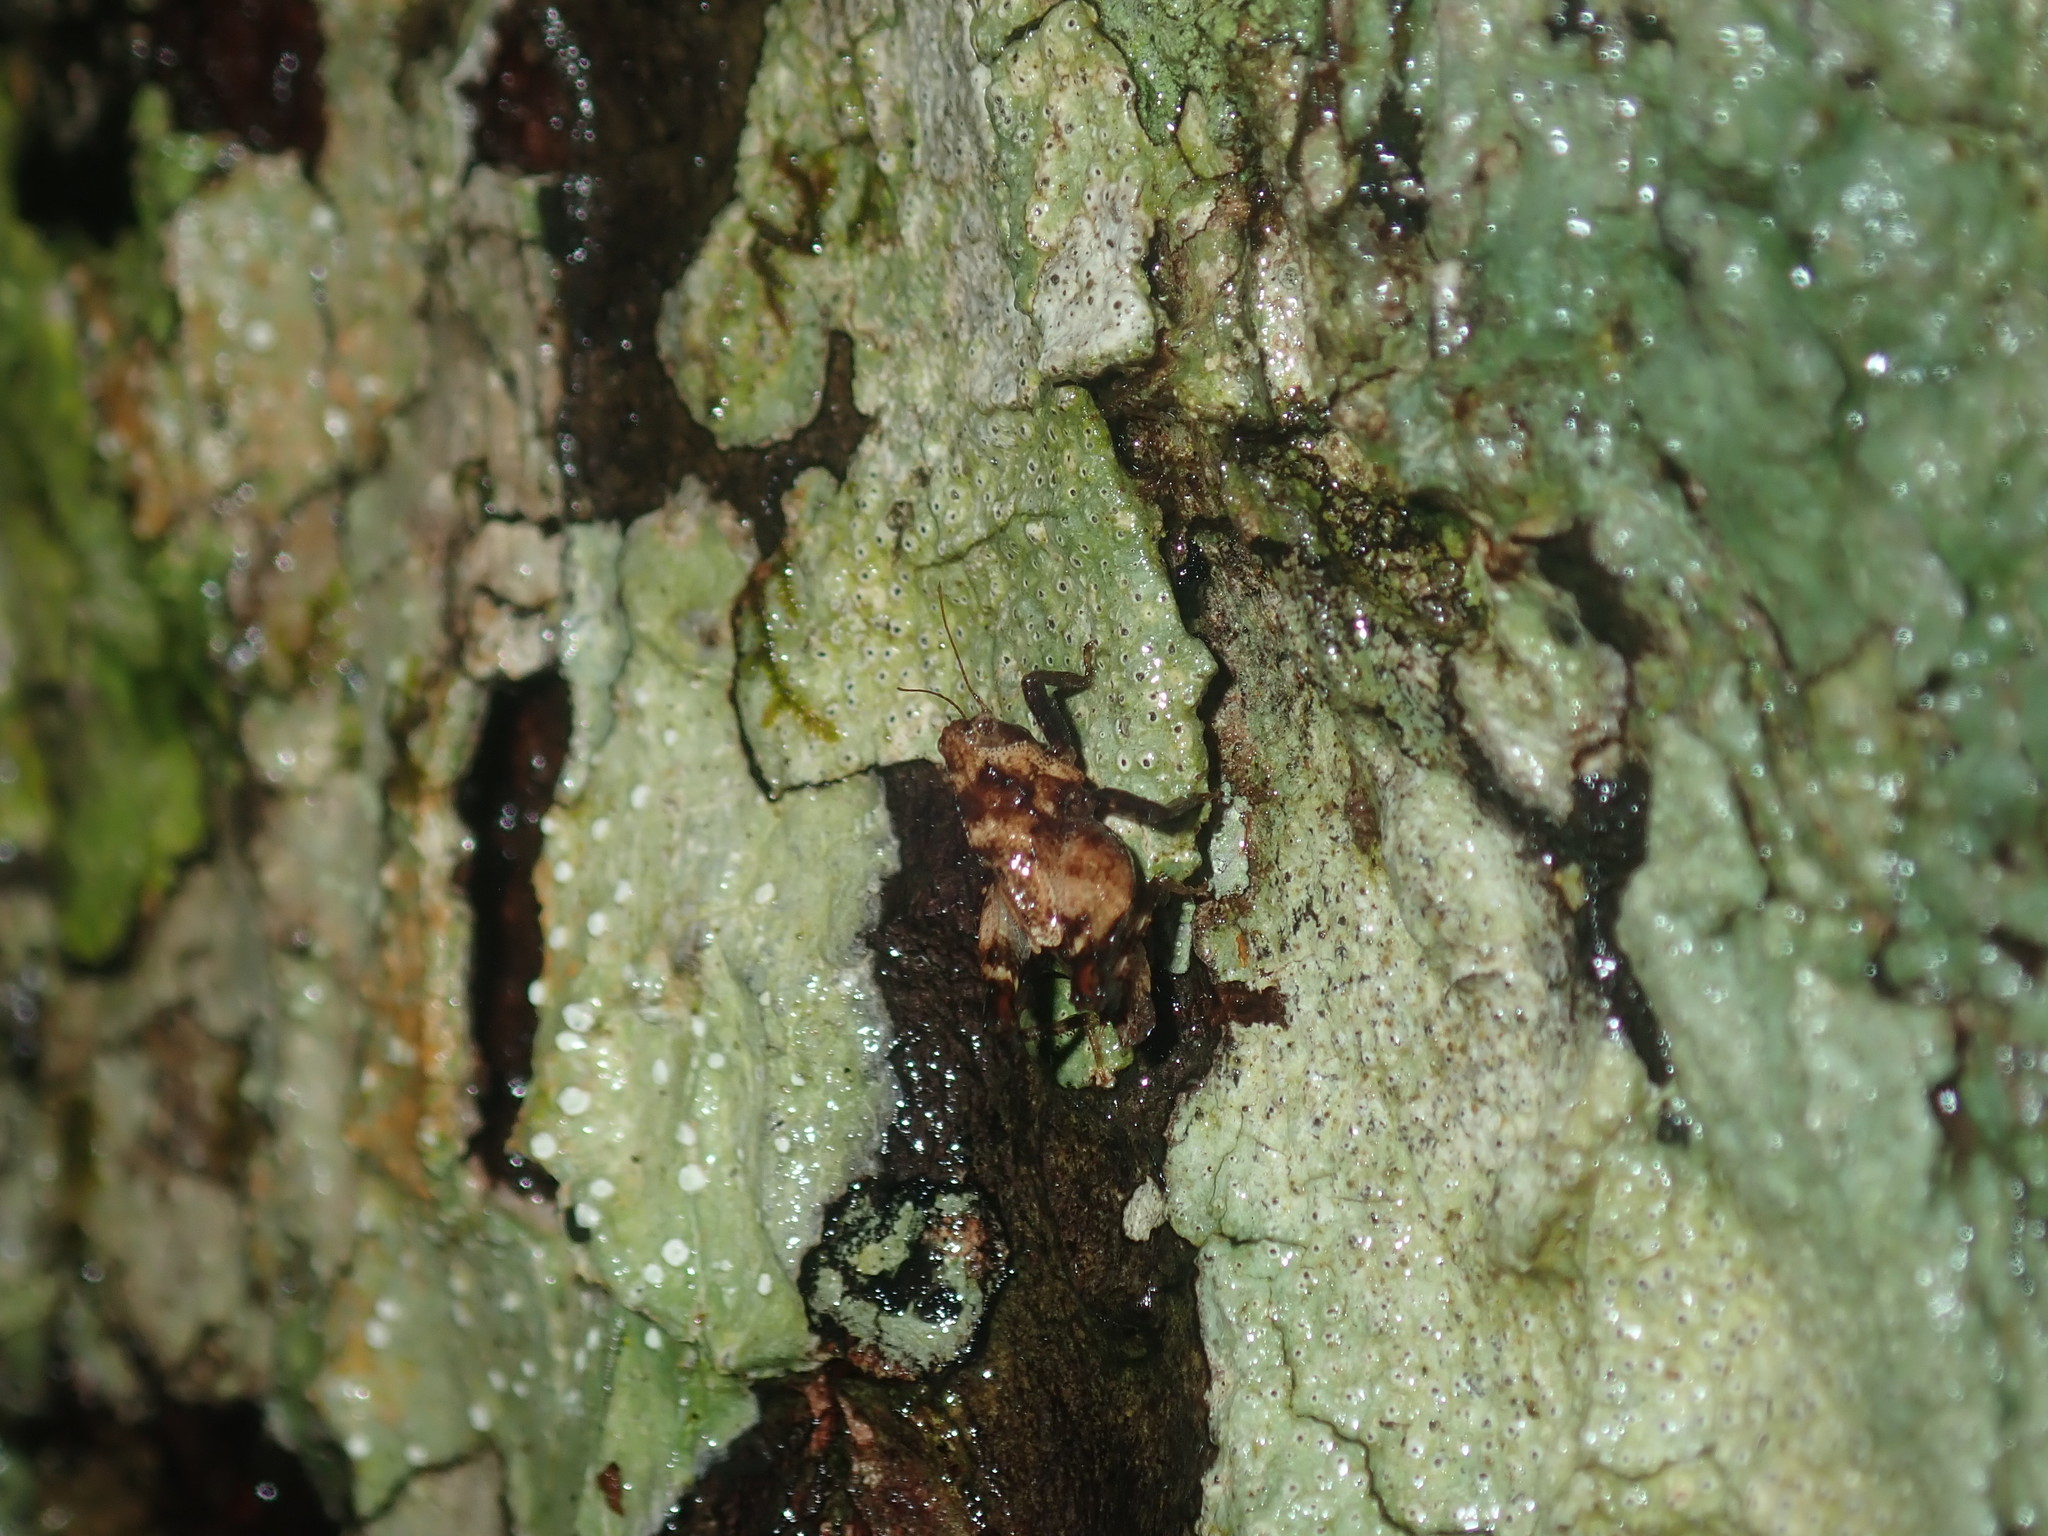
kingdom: Animalia
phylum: Arthropoda
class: Insecta
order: Orthoptera
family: Tetrigidae
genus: Paraselina
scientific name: Paraselina brunneri
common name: Angled australian barkhopper
